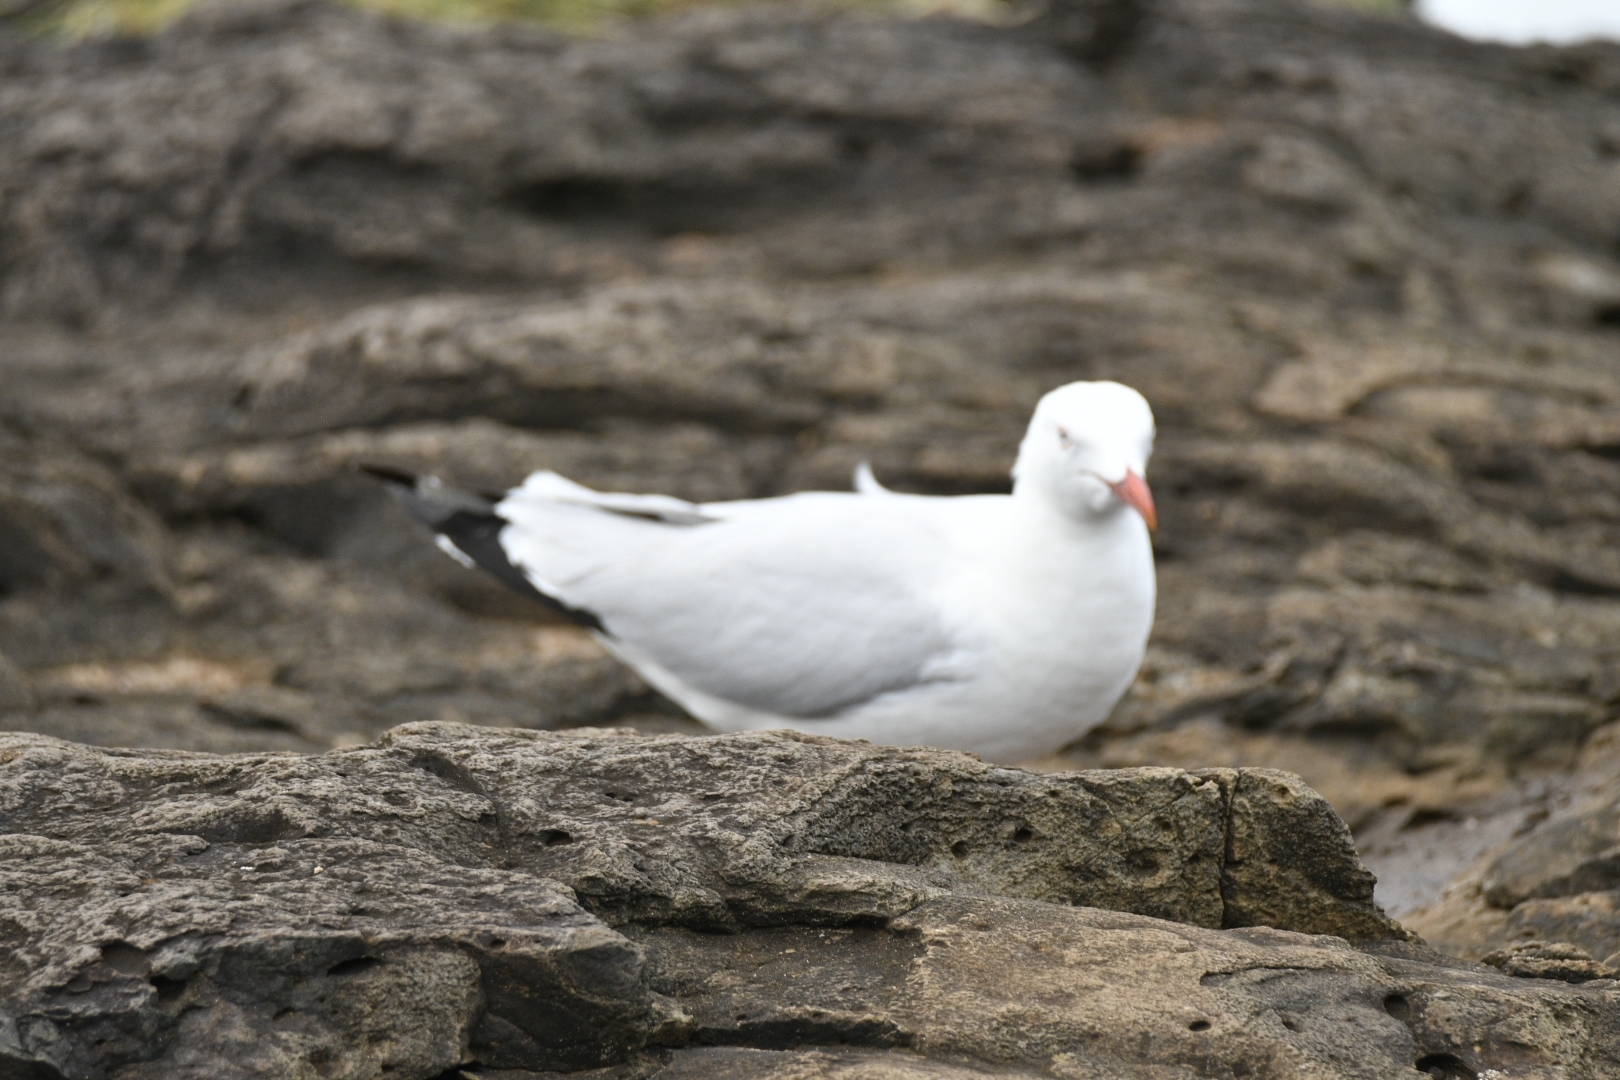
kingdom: Animalia
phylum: Chordata
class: Aves
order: Charadriiformes
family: Laridae
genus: Chroicocephalus
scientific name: Chroicocephalus novaehollandiae
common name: Silver gull
